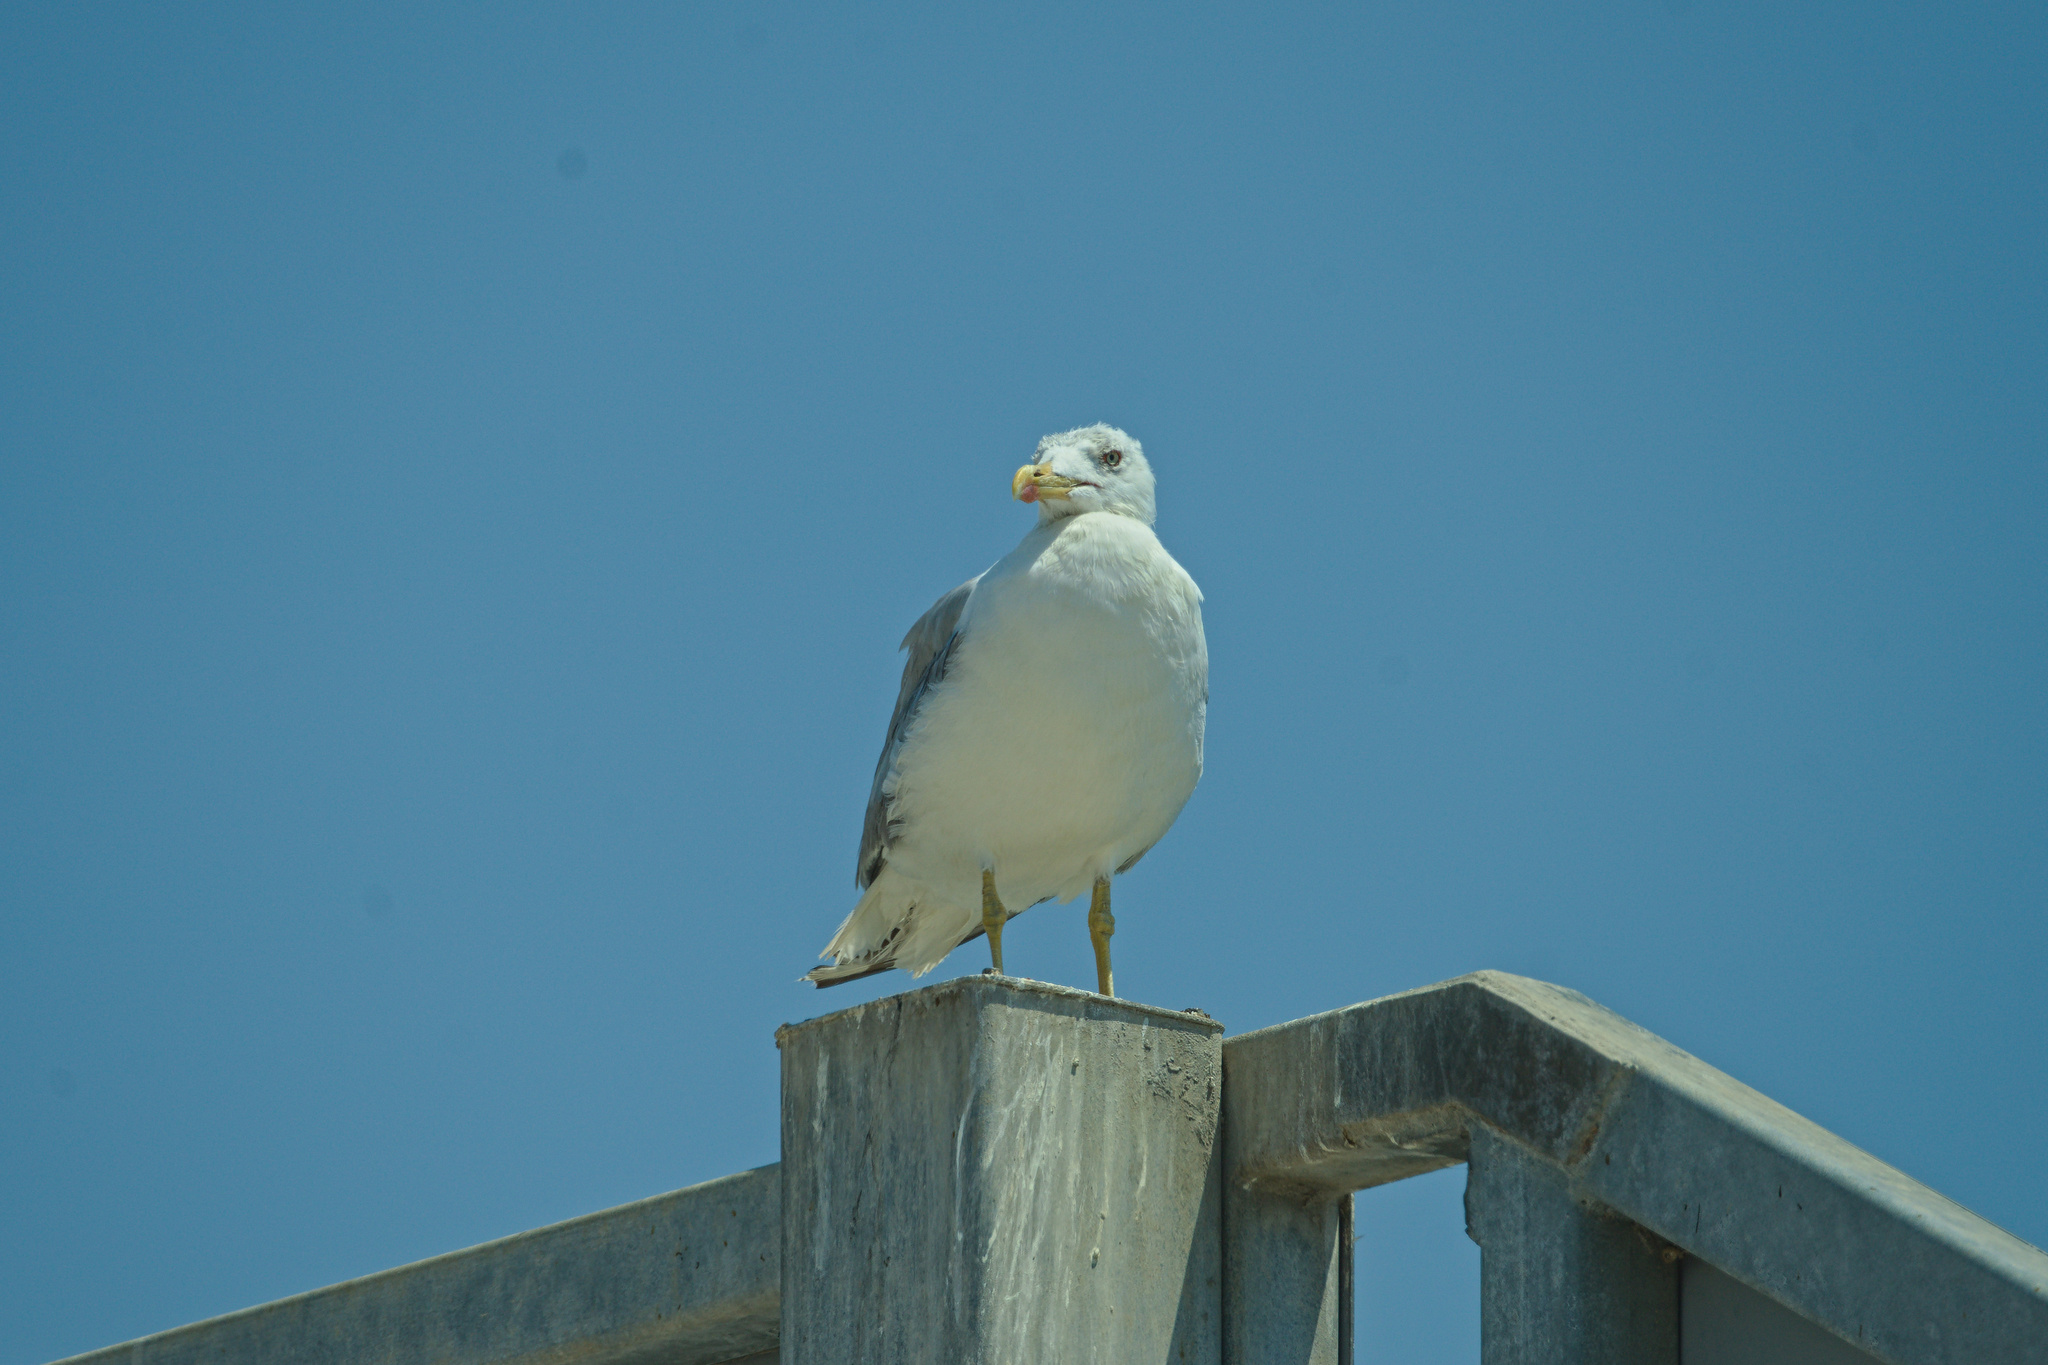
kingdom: Animalia
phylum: Chordata
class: Aves
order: Charadriiformes
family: Laridae
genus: Larus
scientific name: Larus michahellis
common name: Yellow-legged gull
